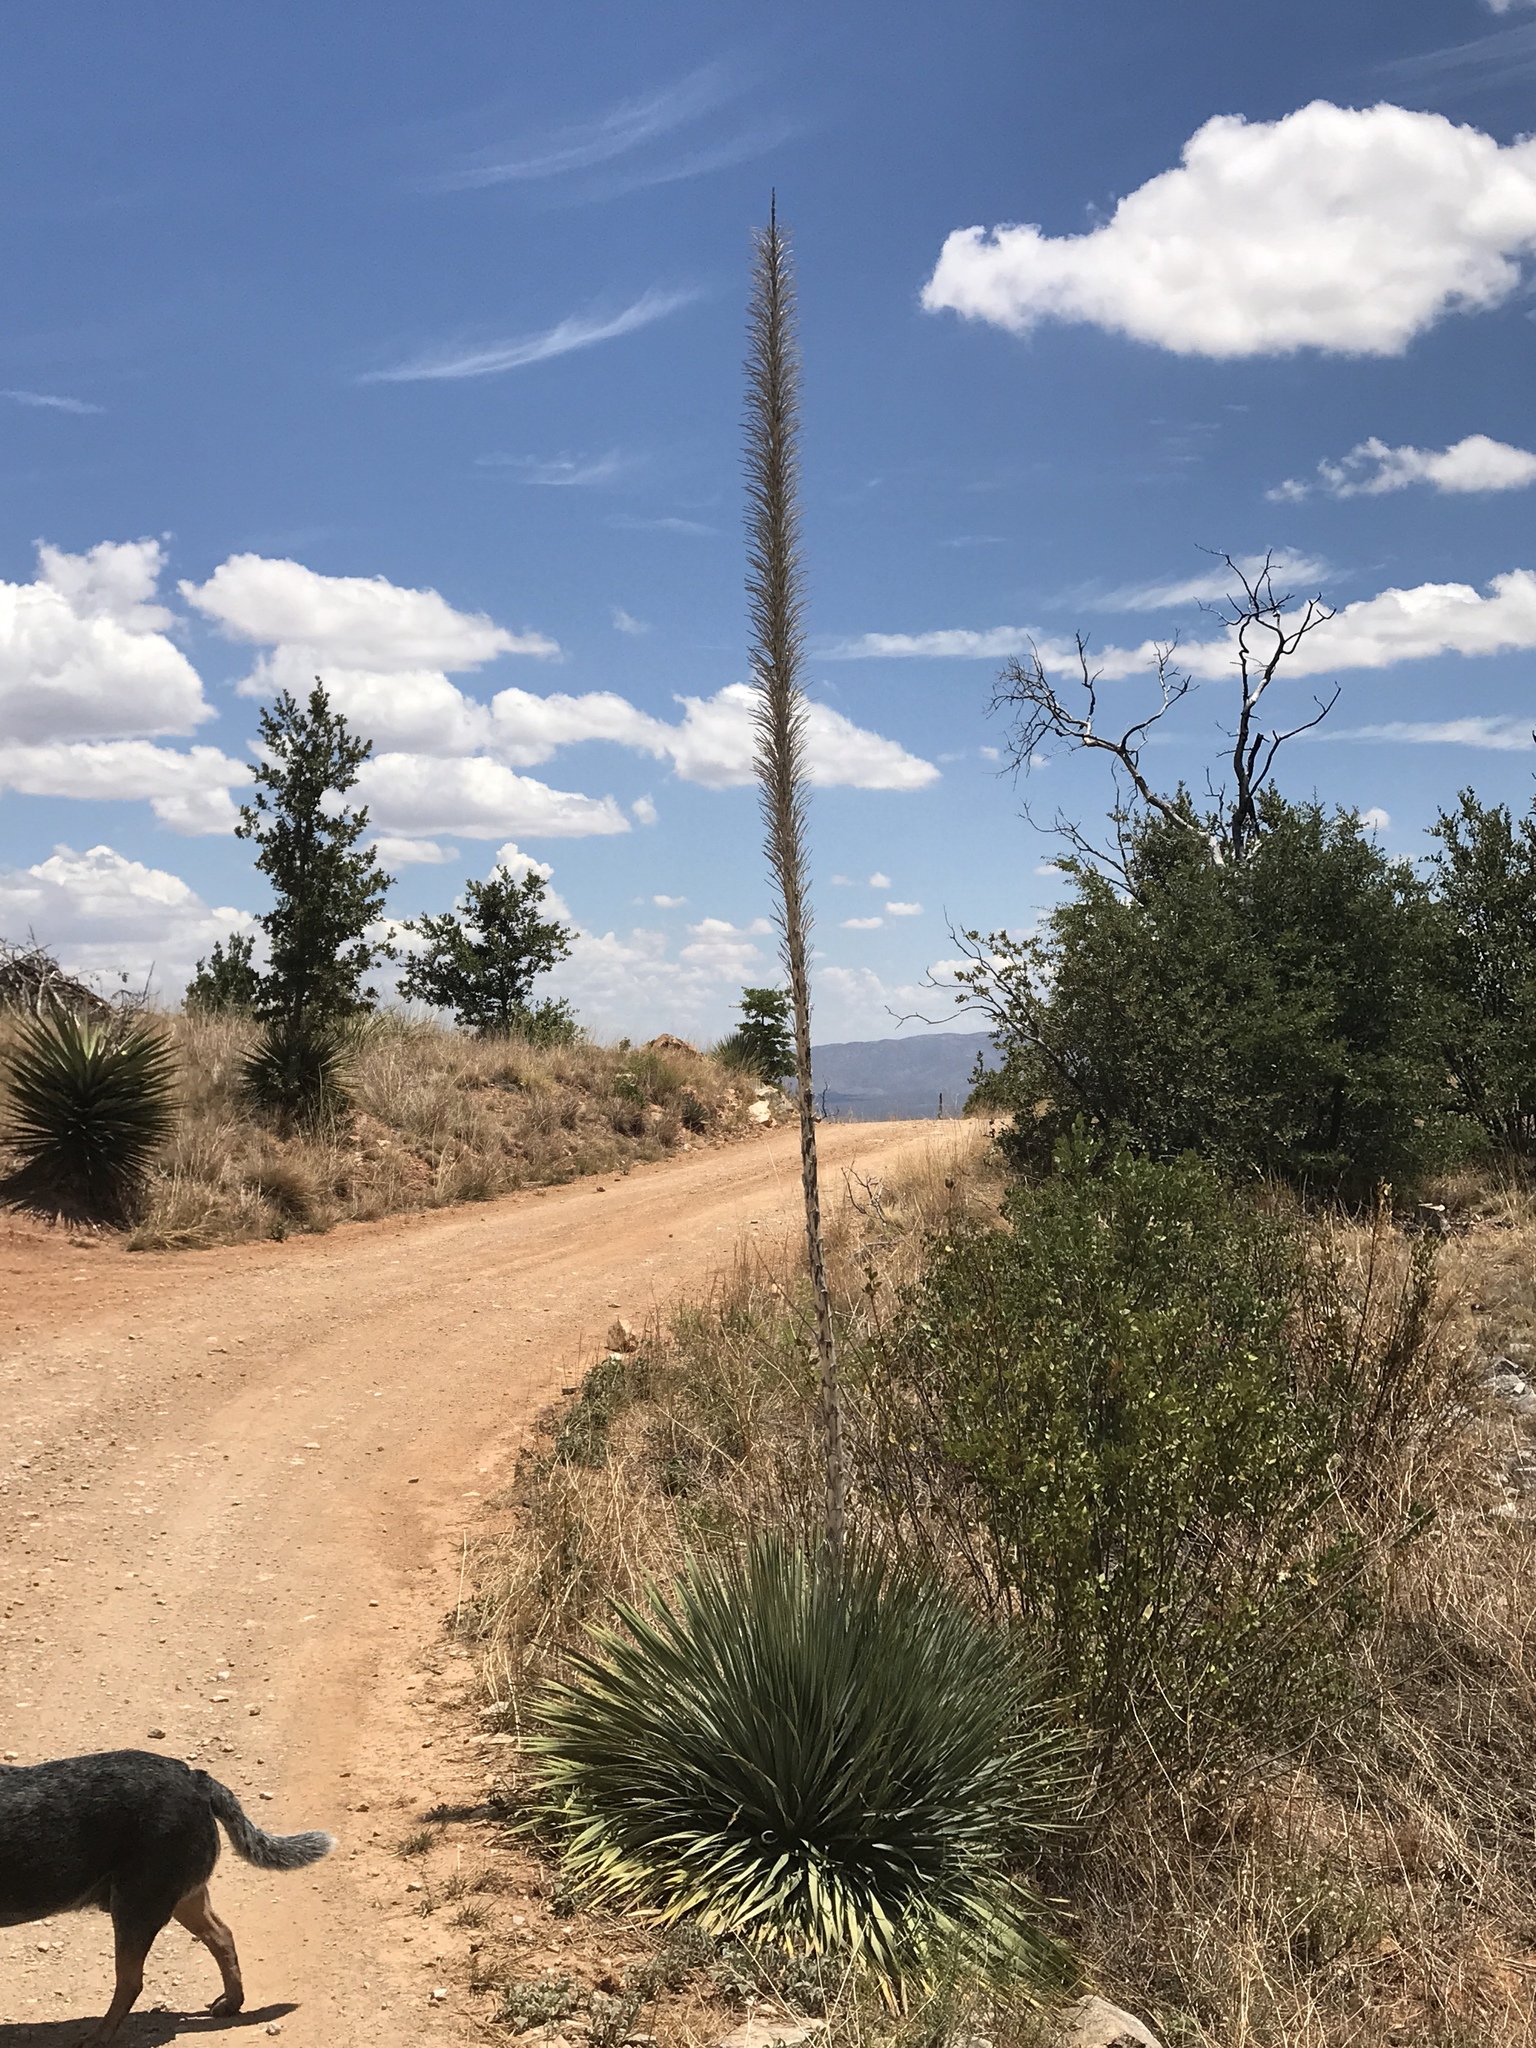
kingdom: Plantae
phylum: Tracheophyta
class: Liliopsida
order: Asparagales
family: Asparagaceae
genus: Dasylirion
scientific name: Dasylirion wheeleri
